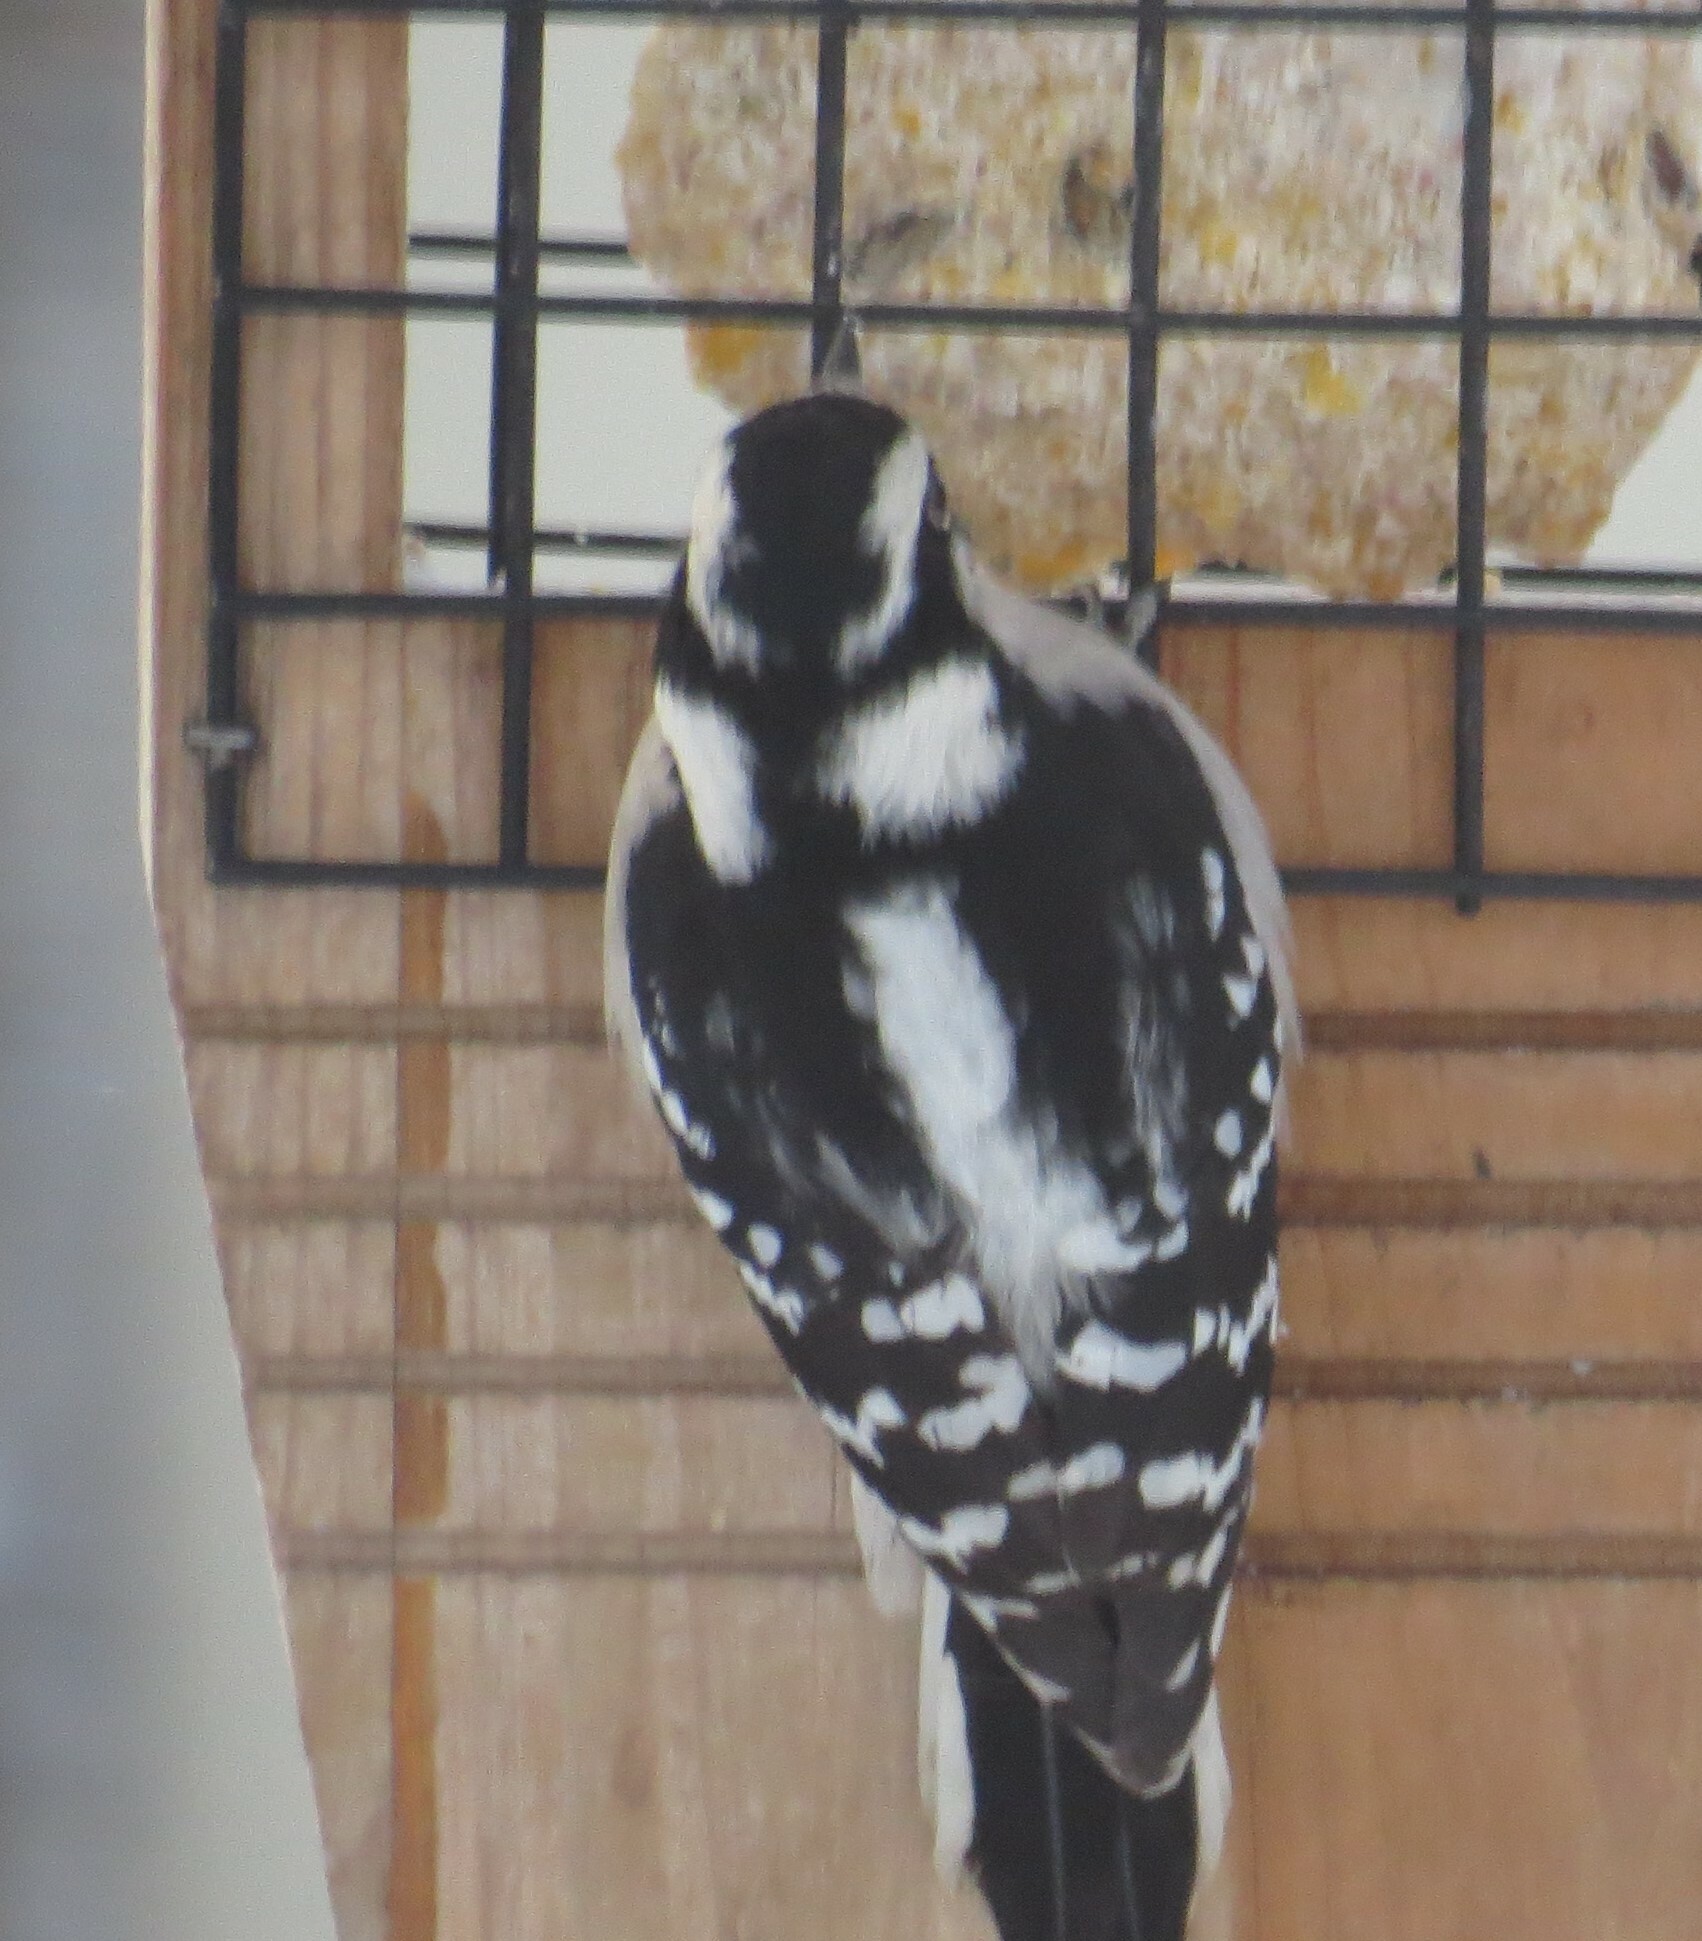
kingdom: Animalia
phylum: Chordata
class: Aves
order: Piciformes
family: Picidae
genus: Dryobates
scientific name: Dryobates pubescens
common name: Downy woodpecker
